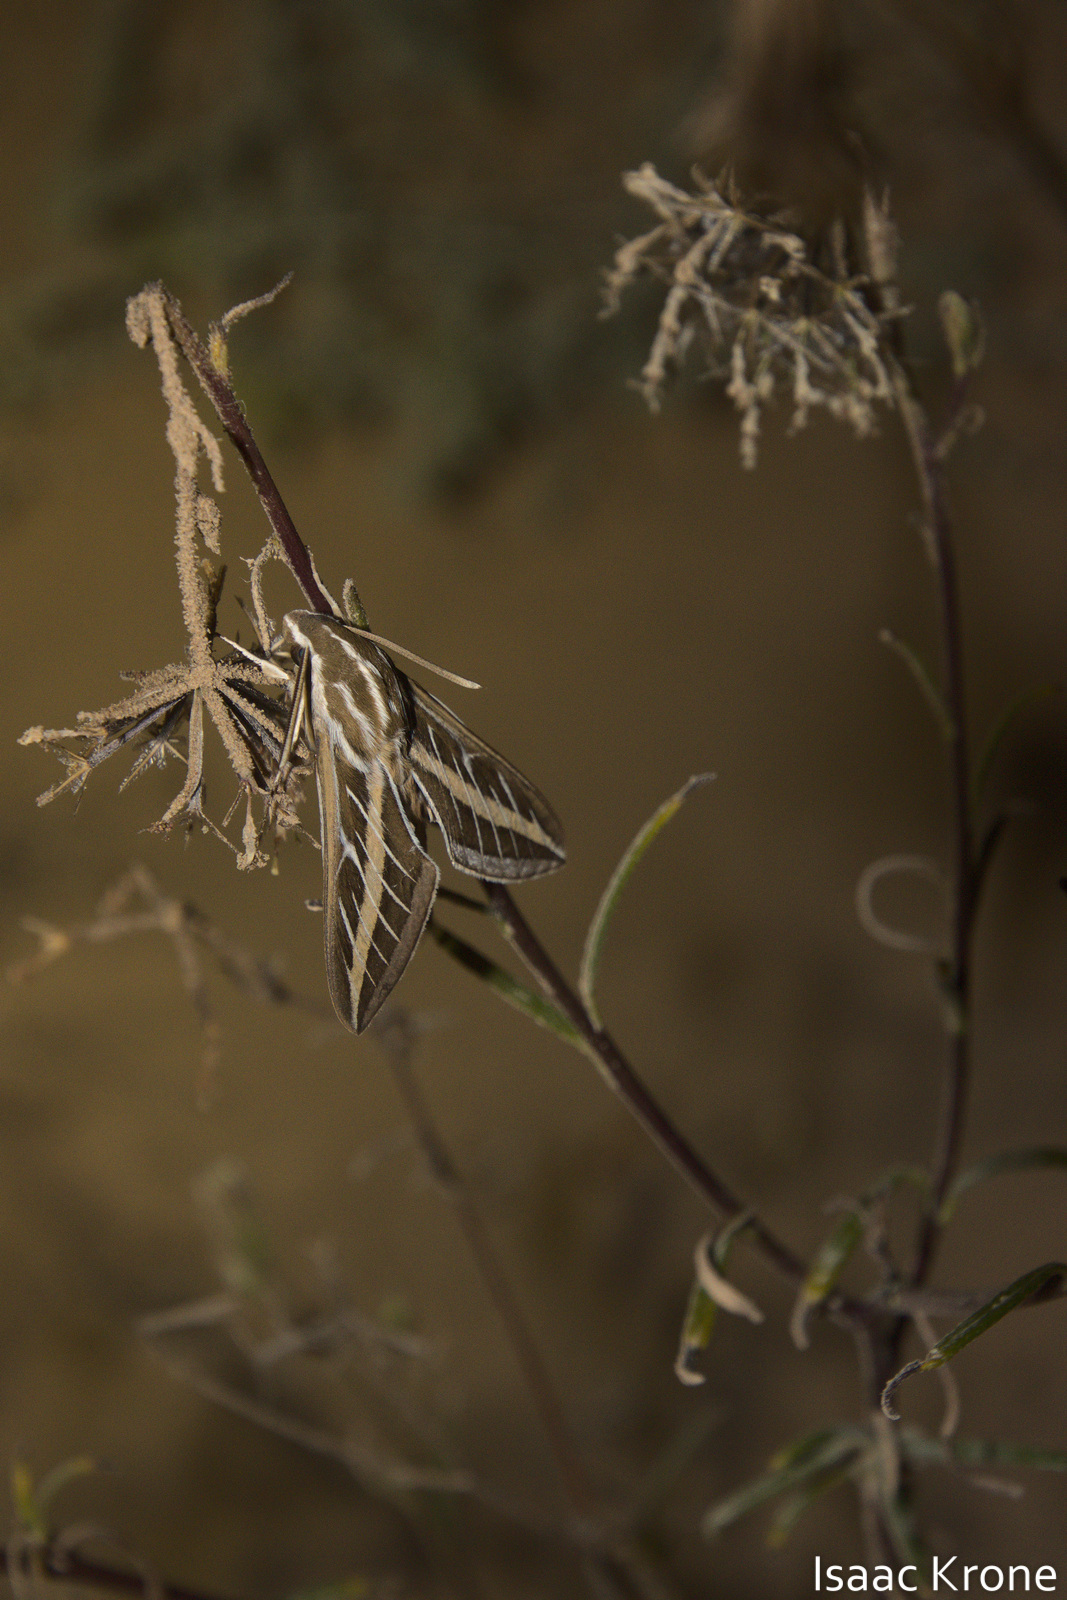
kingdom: Animalia
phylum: Arthropoda
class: Insecta
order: Lepidoptera
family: Sphingidae
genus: Hyles
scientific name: Hyles lineata
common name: White-lined sphinx
